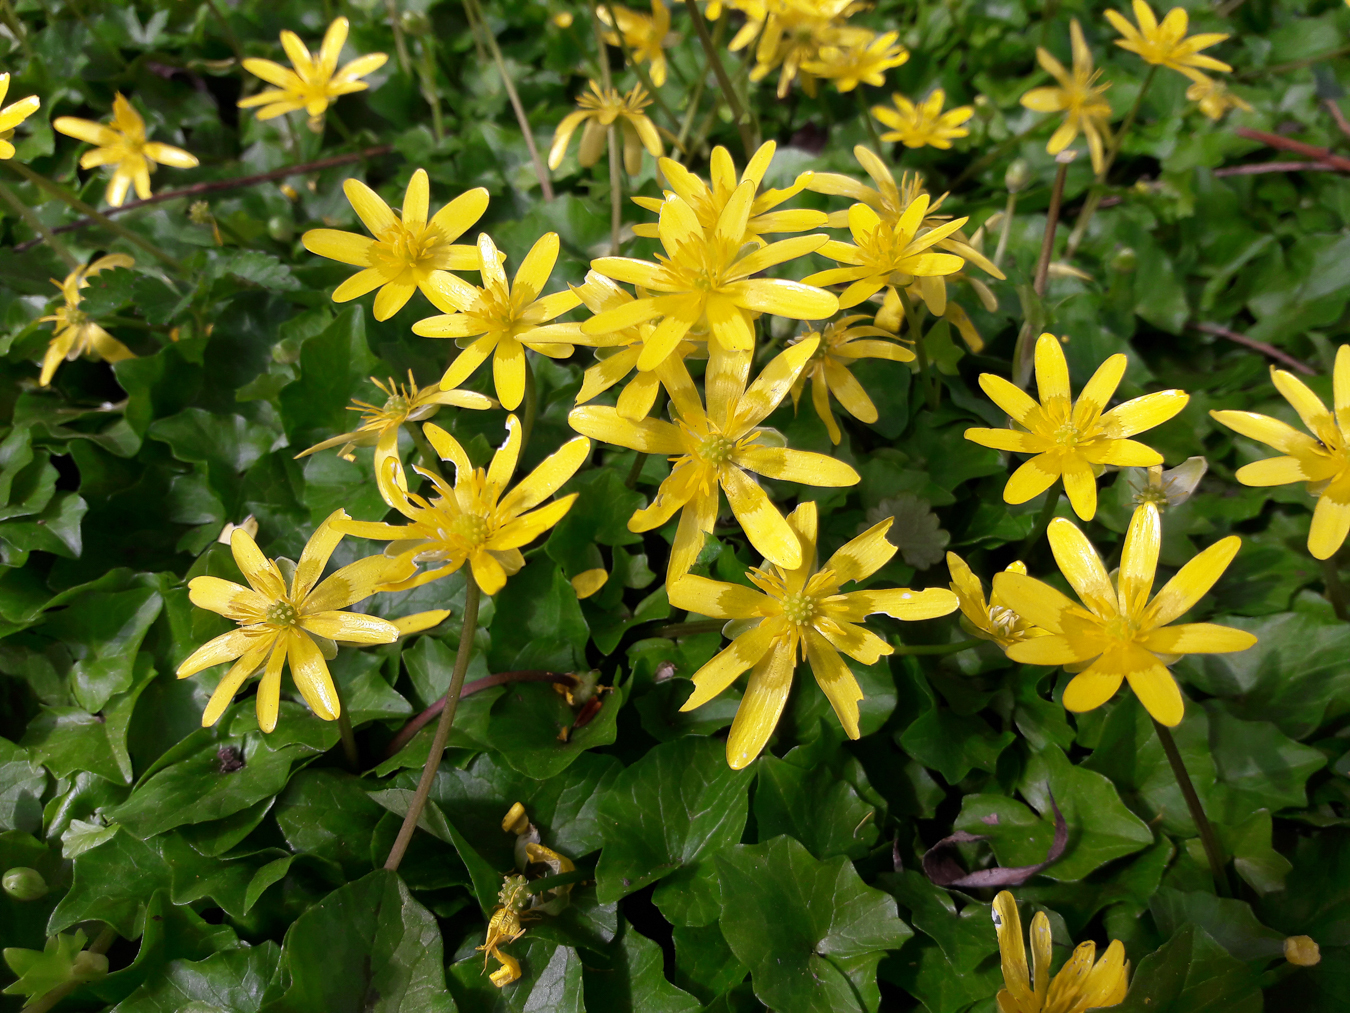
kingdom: Plantae
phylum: Tracheophyta
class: Magnoliopsida
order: Ranunculales
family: Ranunculaceae
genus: Ficaria
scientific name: Ficaria verna
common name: Lesser celandine
